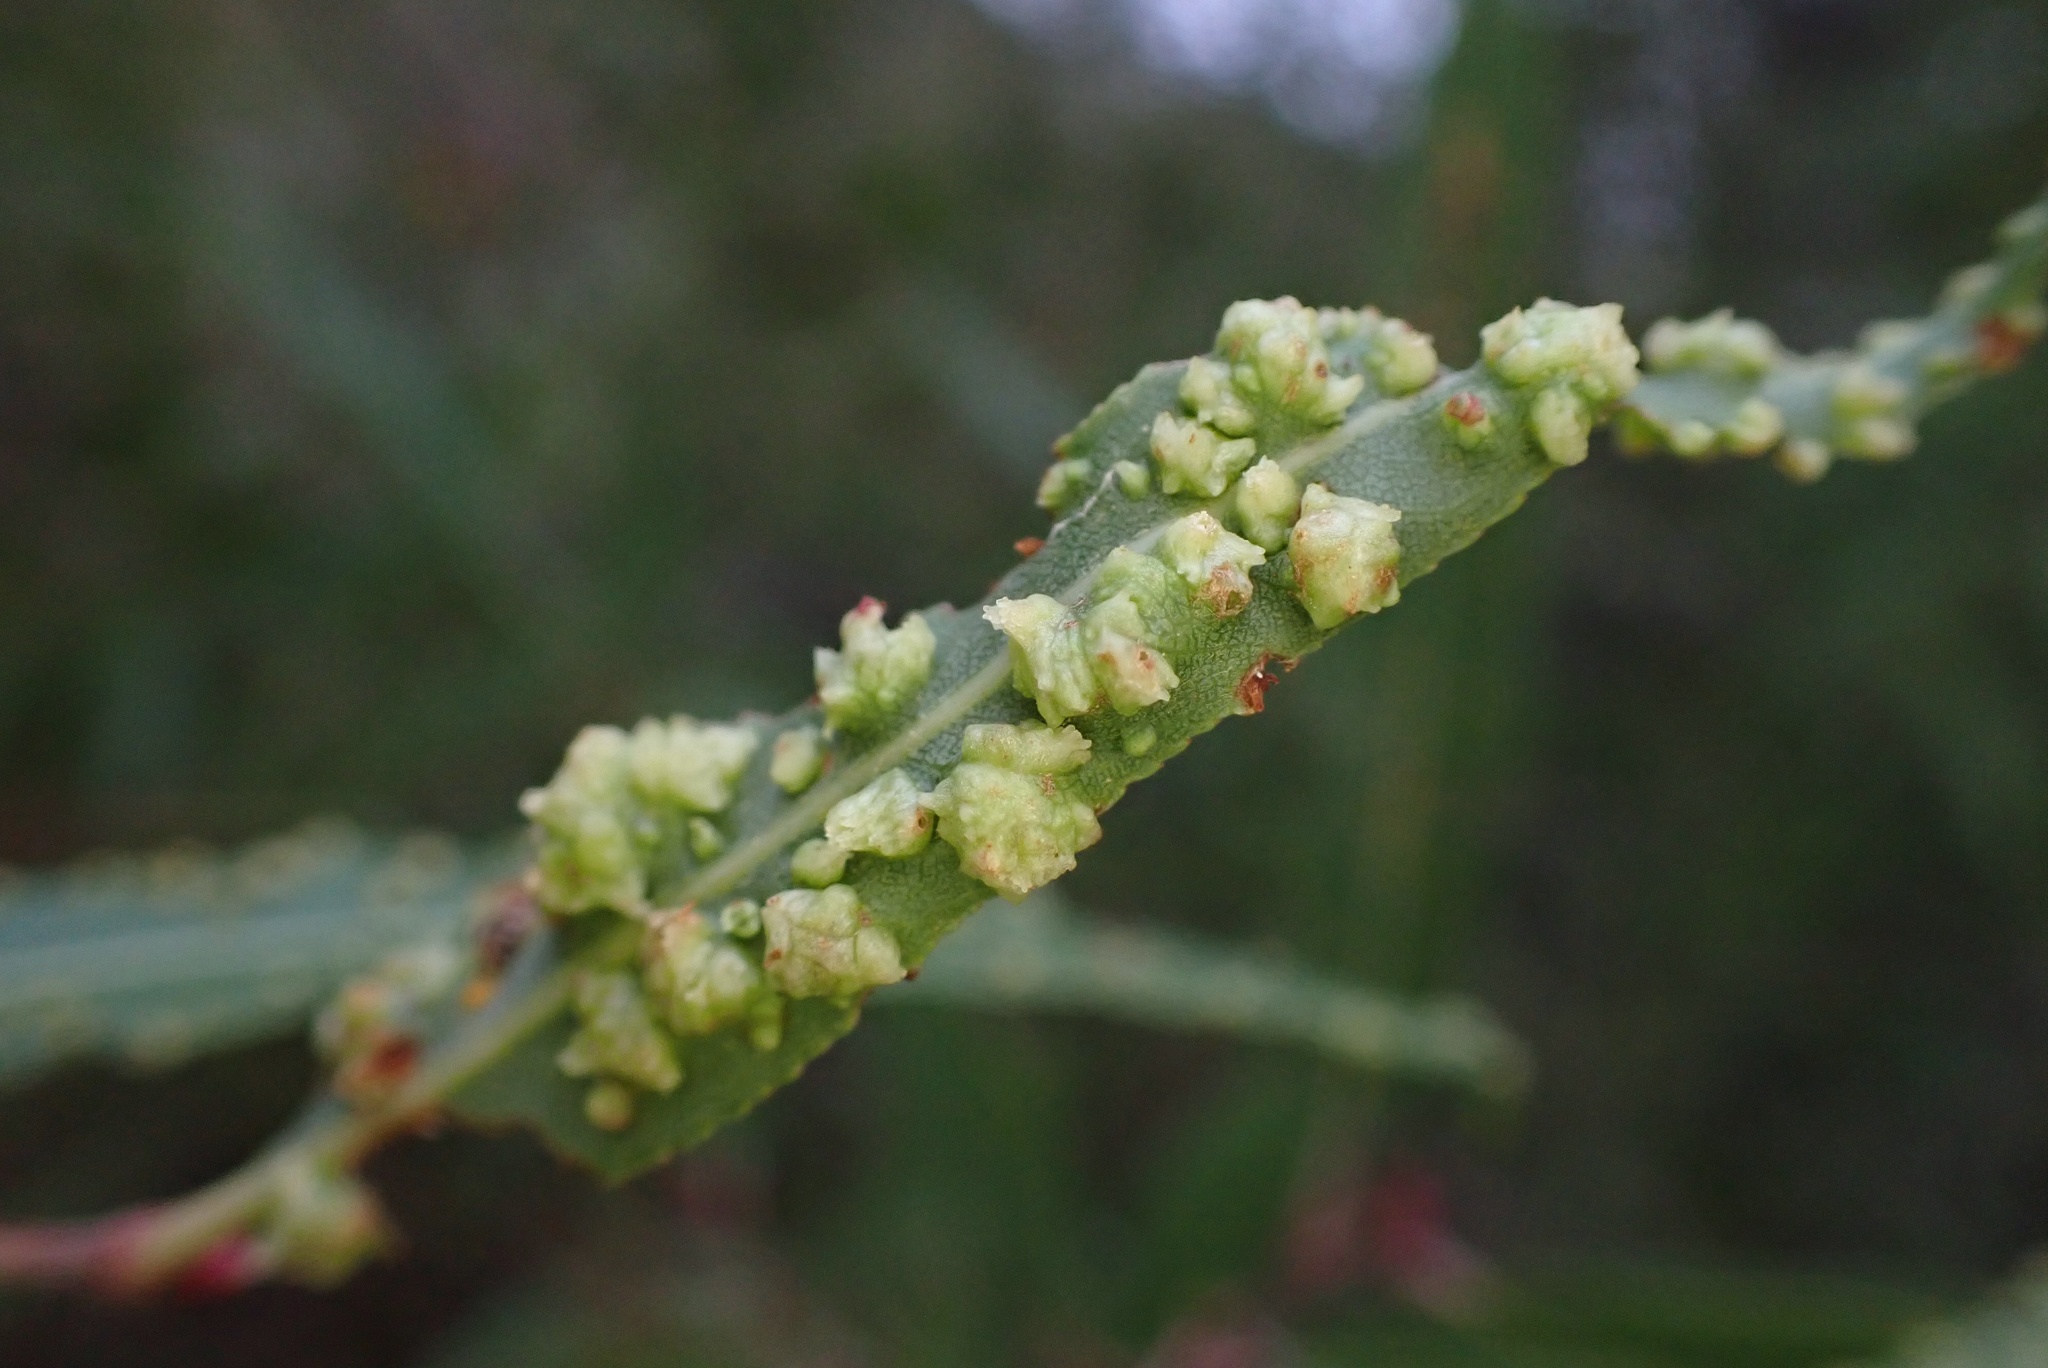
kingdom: Animalia
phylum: Arthropoda
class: Arachnida
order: Trombidiformes
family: Eriophyidae
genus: Aculus
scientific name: Aculus
